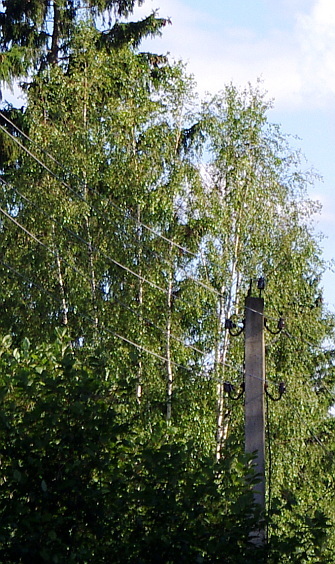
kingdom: Plantae
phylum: Tracheophyta
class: Magnoliopsida
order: Fagales
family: Betulaceae
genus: Betula
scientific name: Betula pendula
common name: Silver birch
